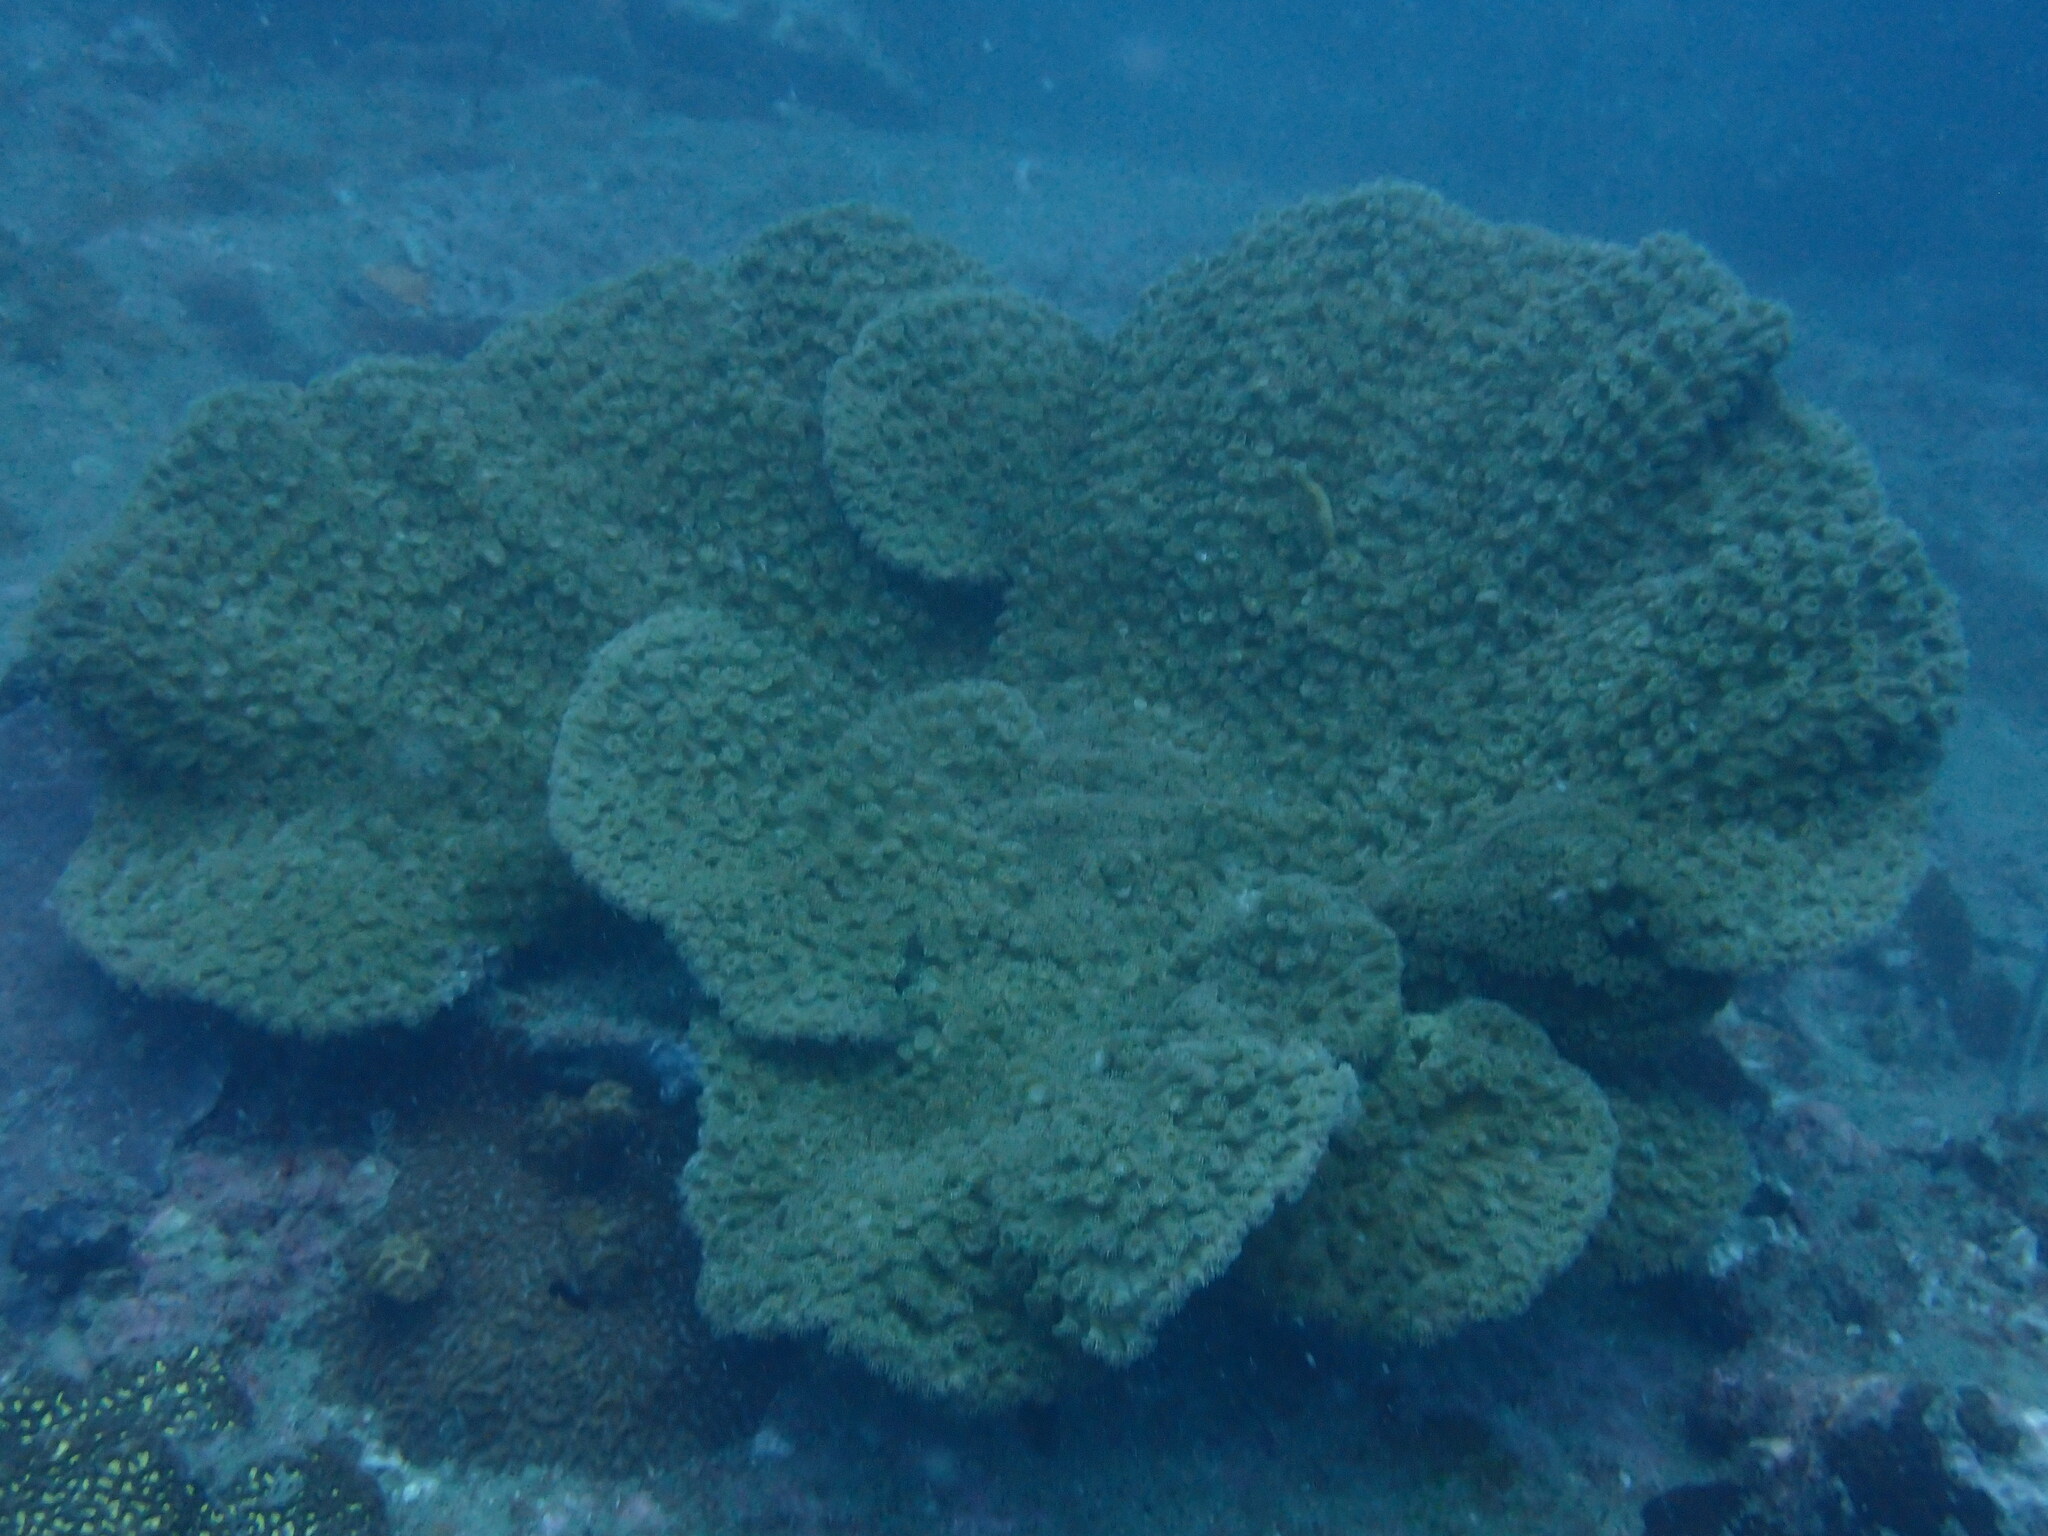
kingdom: Animalia
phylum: Cnidaria
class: Anthozoa
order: Scleractinia
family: Dendrophylliidae
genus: Duncanopsammia
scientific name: Duncanopsammia peltata
